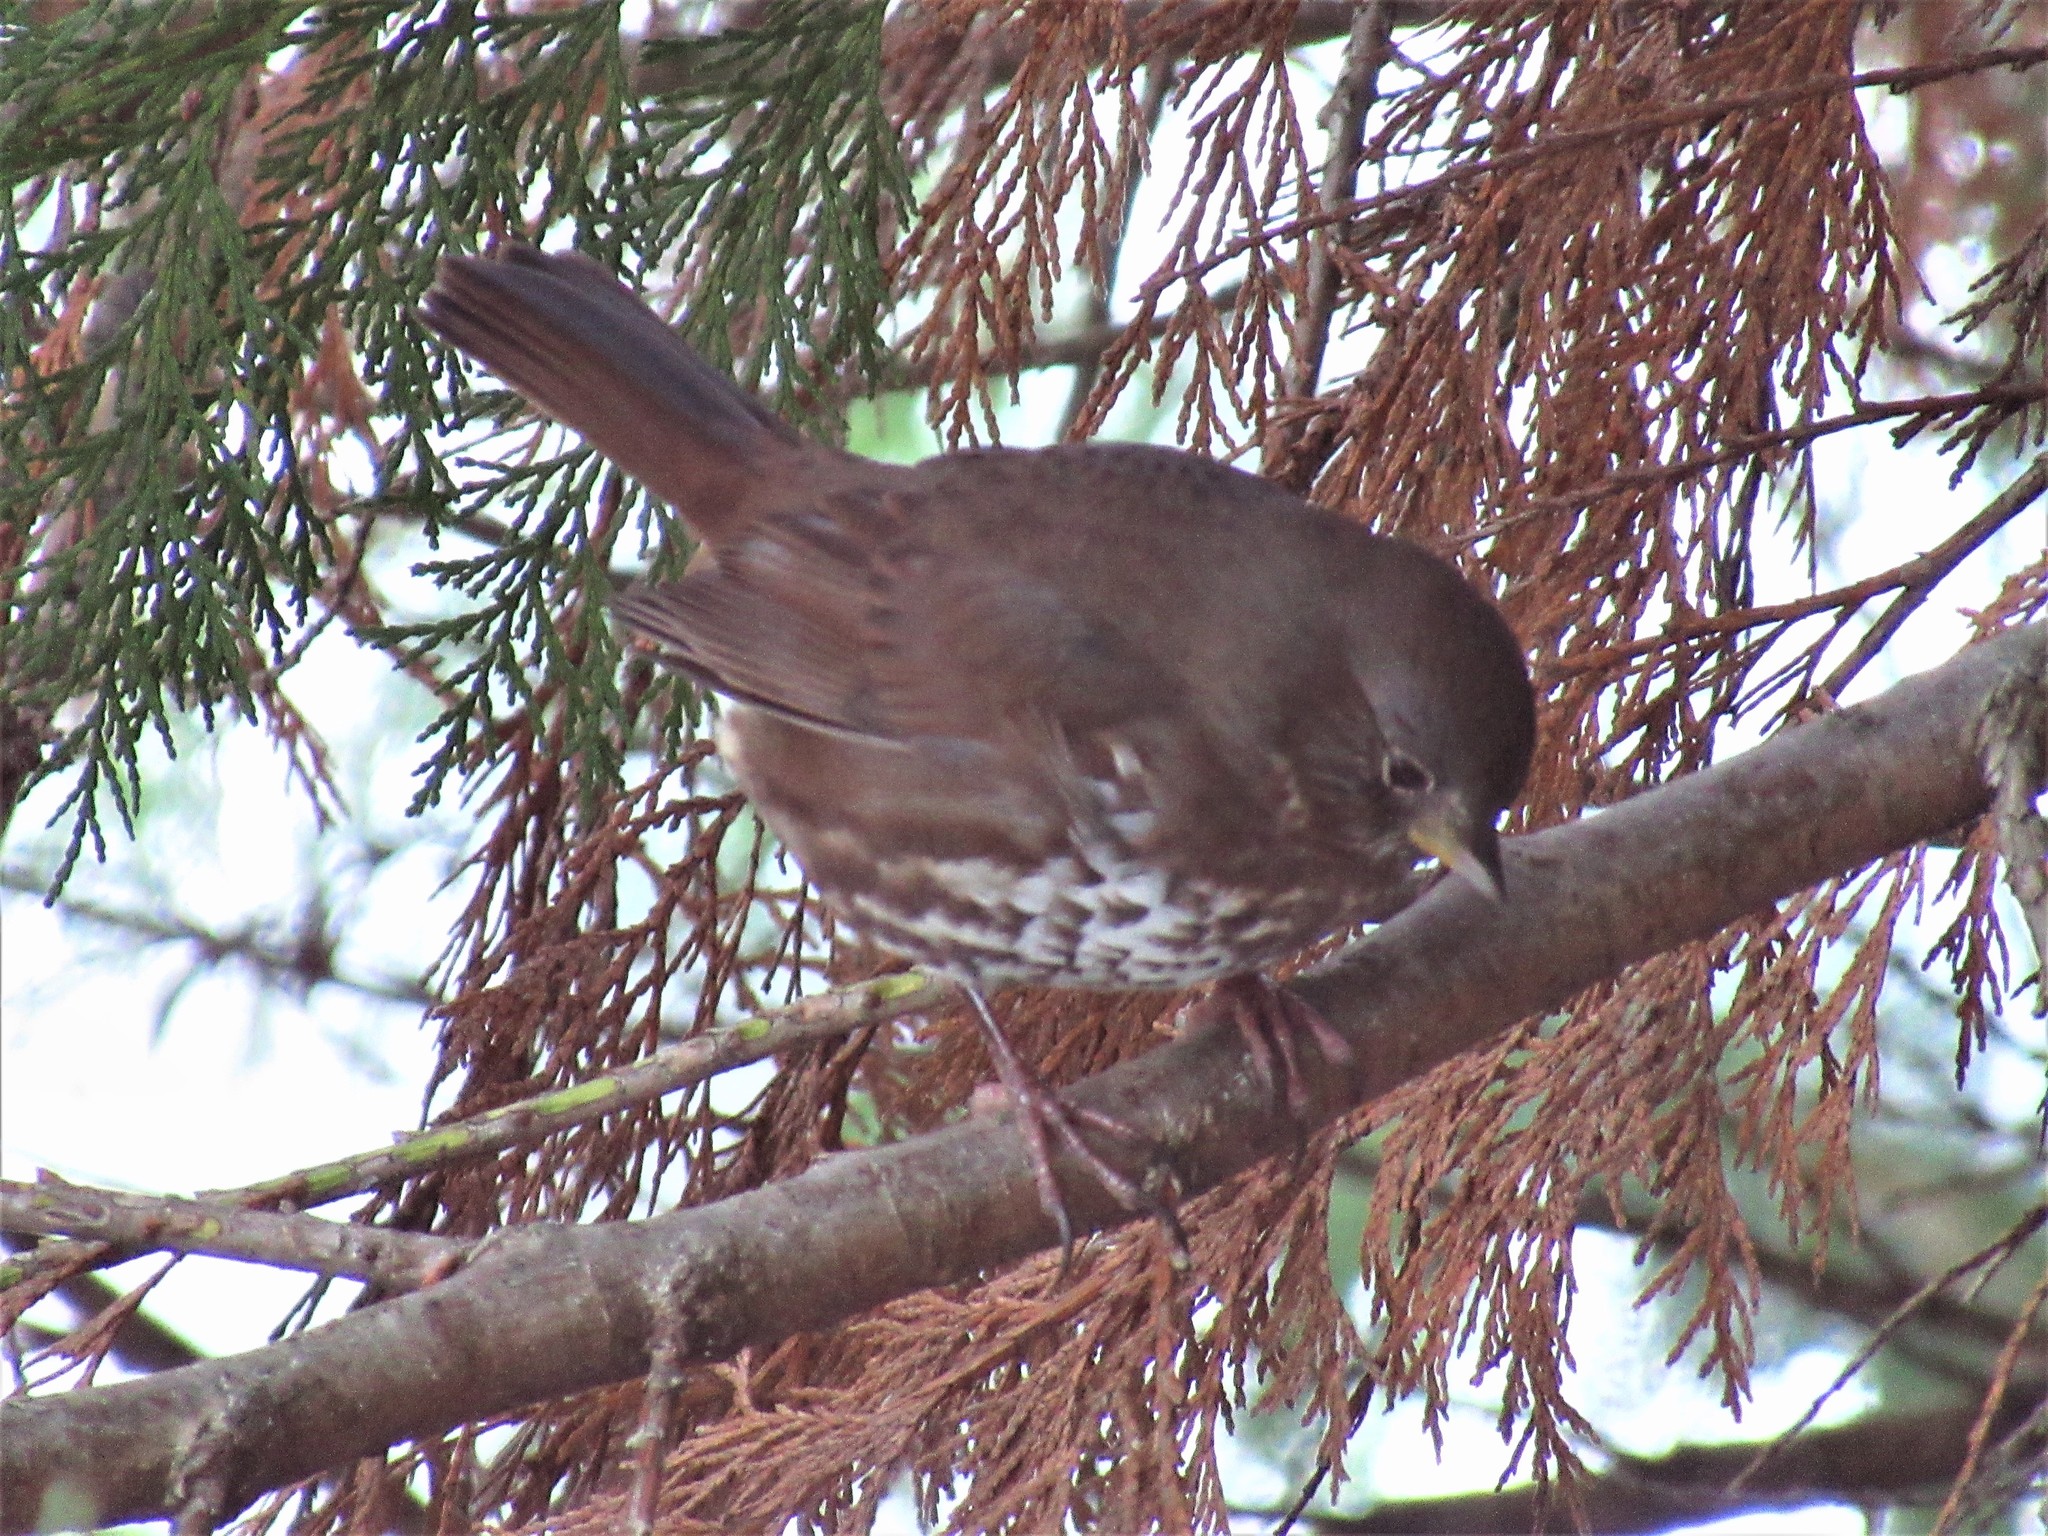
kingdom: Animalia
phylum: Chordata
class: Aves
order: Passeriformes
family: Passerellidae
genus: Passerella
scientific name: Passerella iliaca
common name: Fox sparrow
